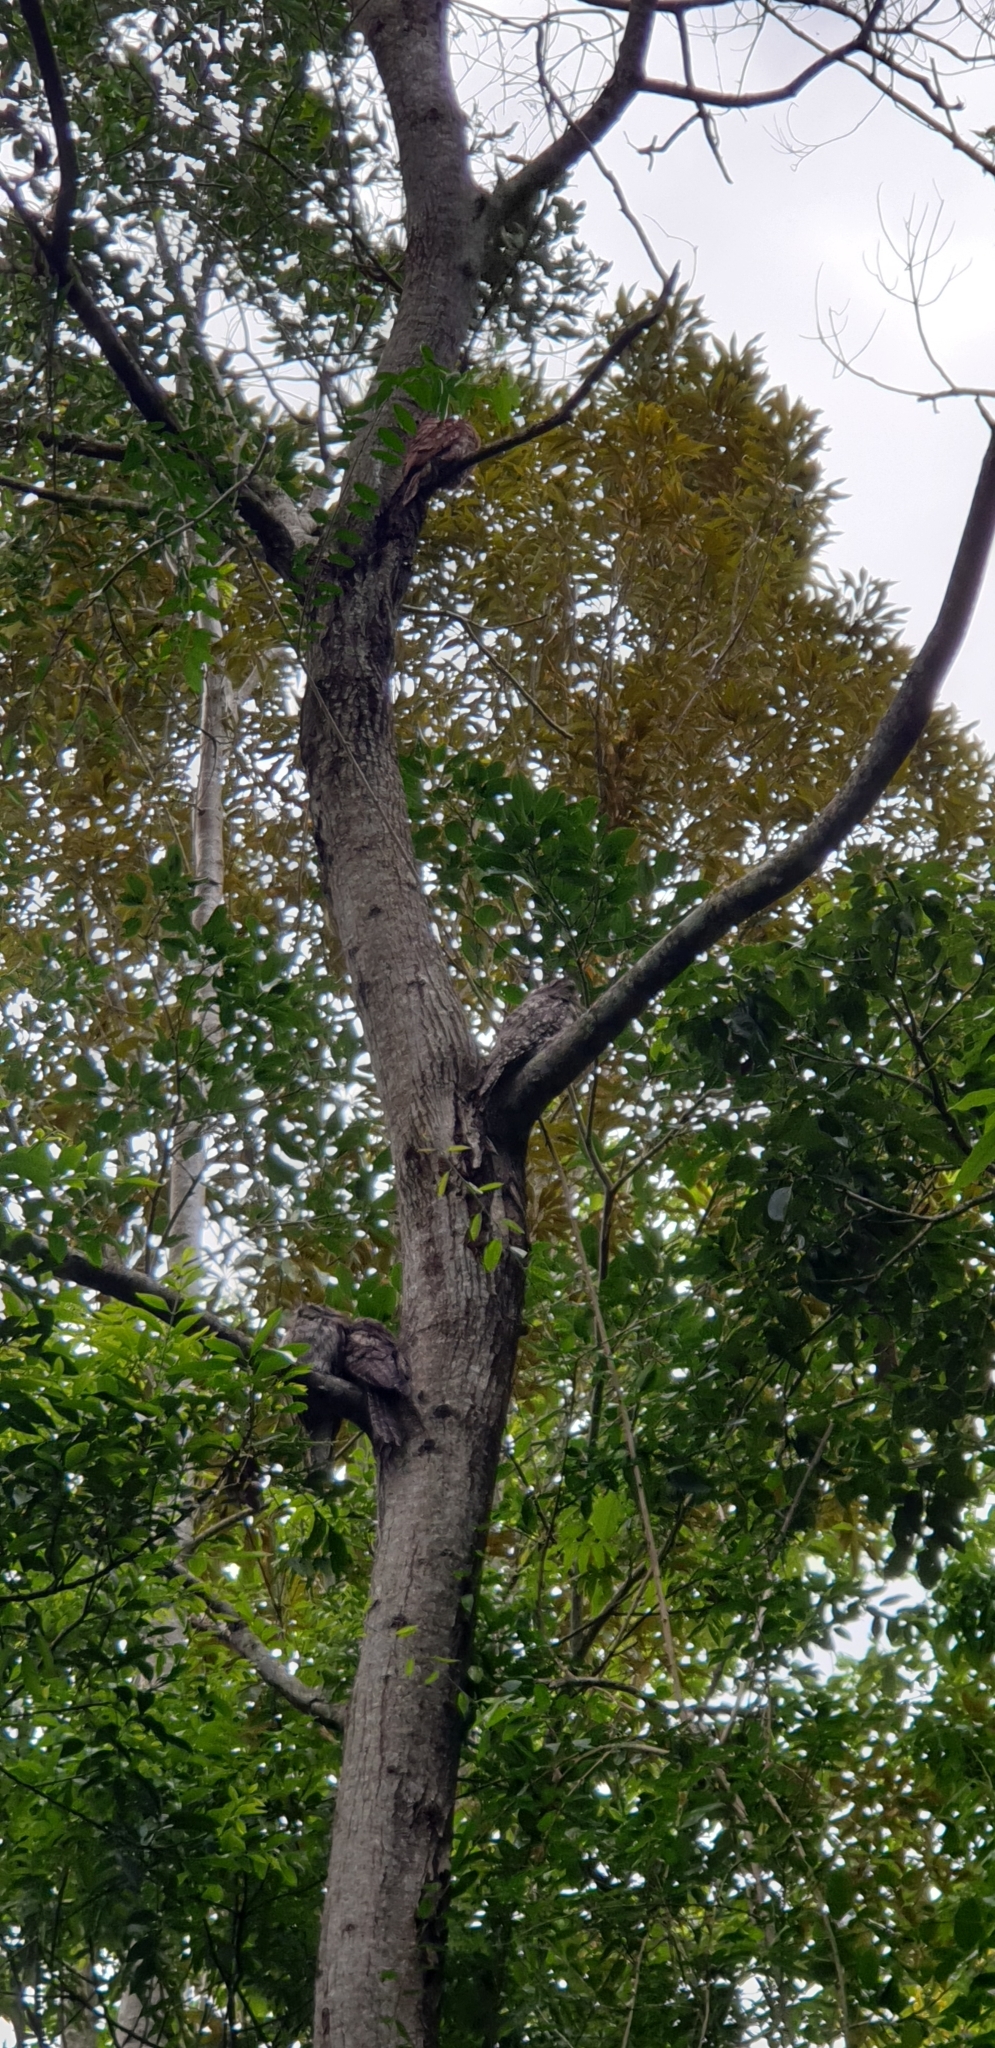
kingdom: Animalia
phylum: Chordata
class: Aves
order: Caprimulgiformes
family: Podargidae
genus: Podargus
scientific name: Podargus strigoides
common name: Tawny frogmouth
